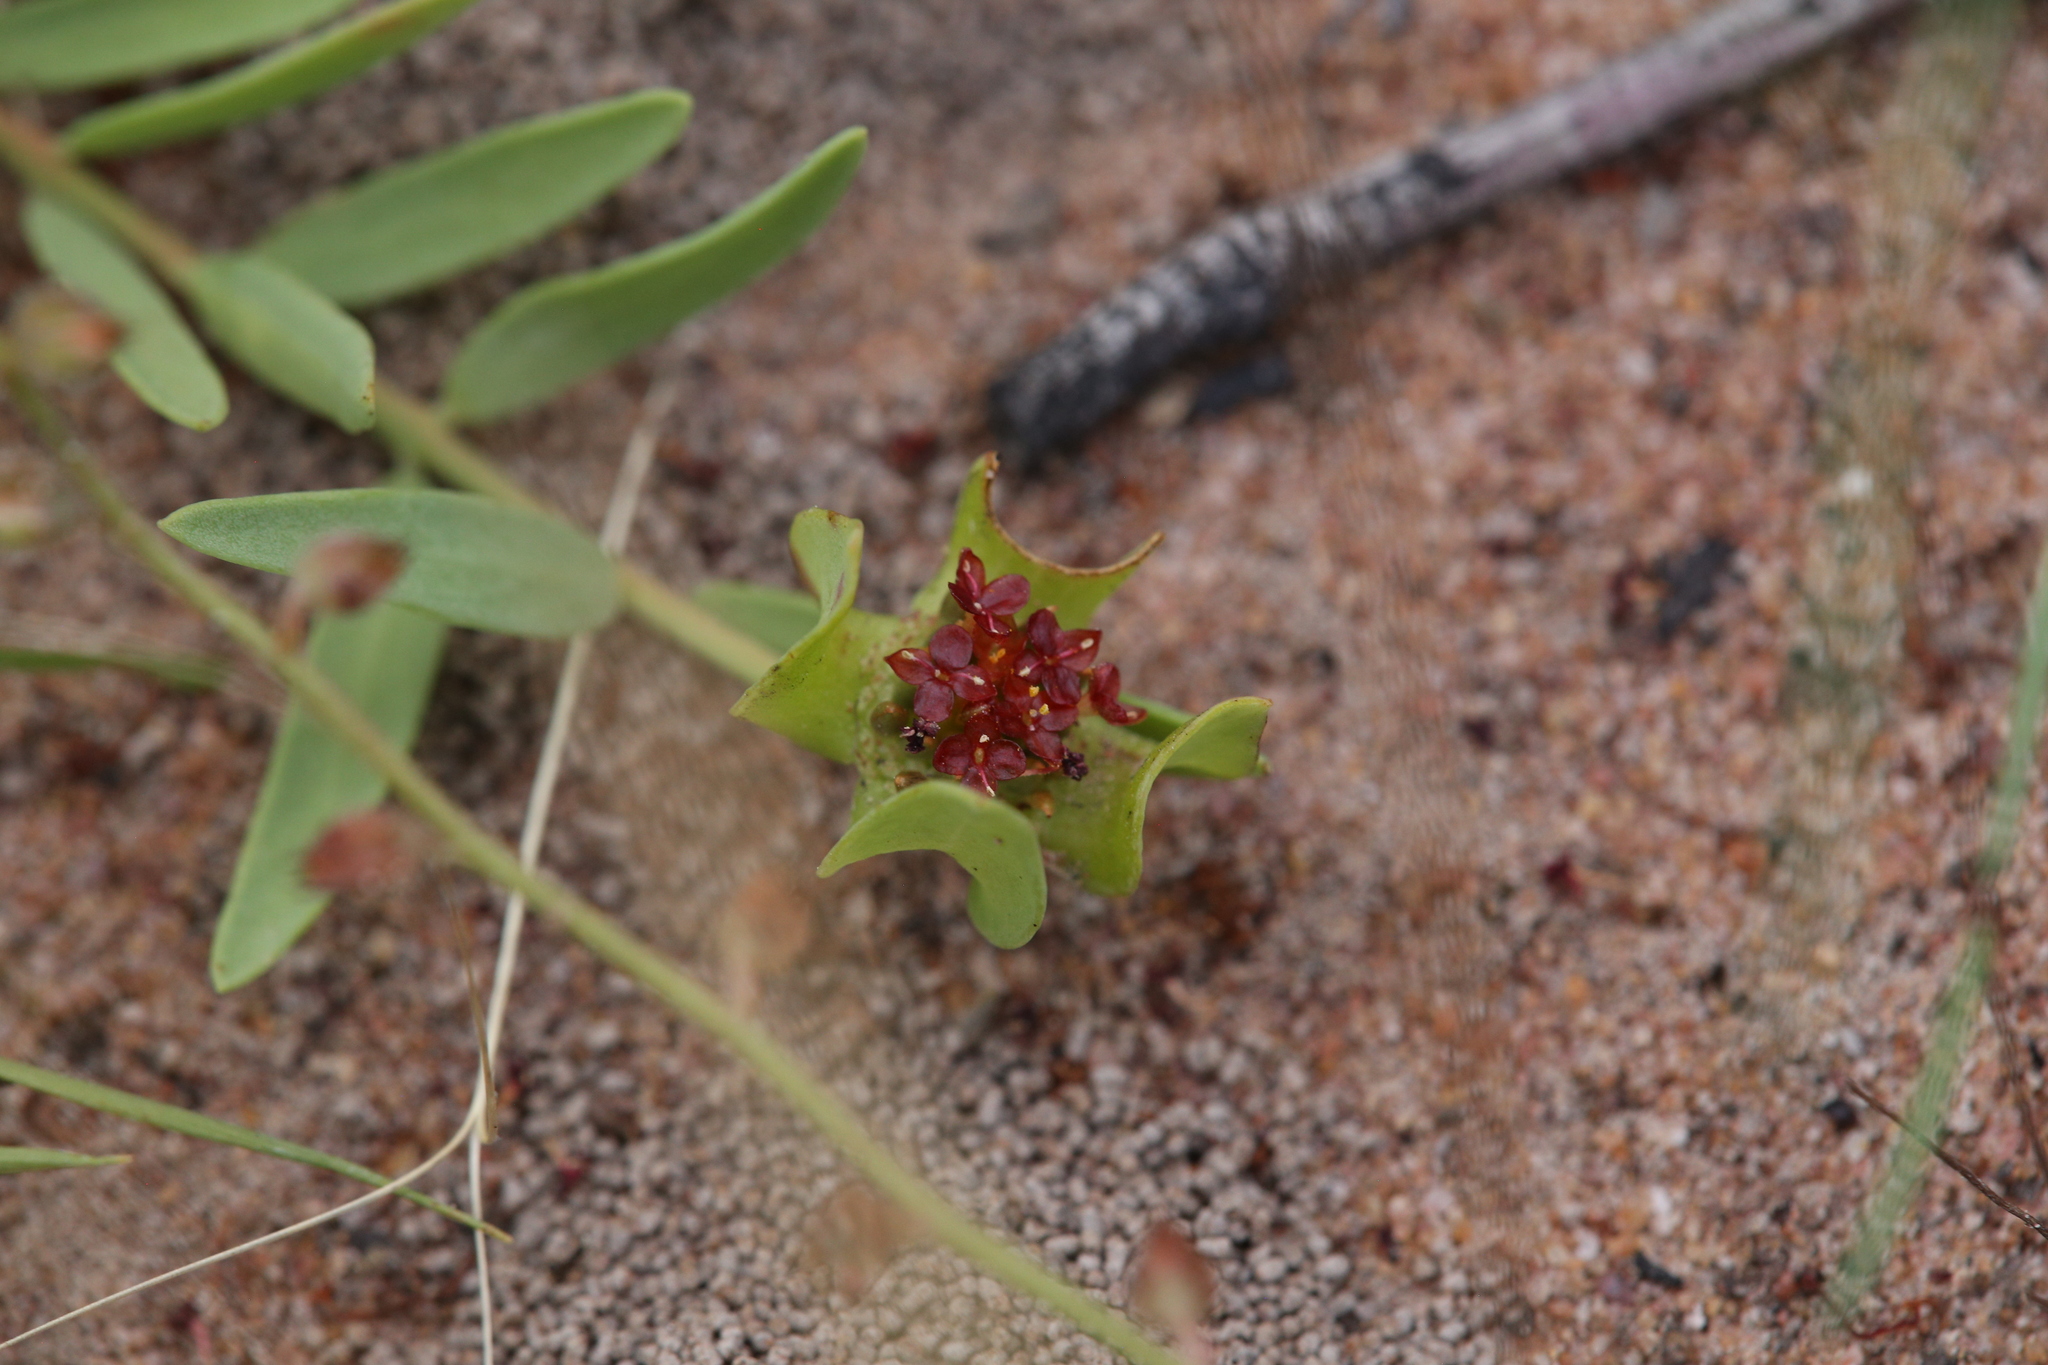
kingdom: Plantae
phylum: Tracheophyta
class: Magnoliopsida
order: Malvales
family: Thymelaeaceae
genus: Pimelea
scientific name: Pimelea sanguinea
